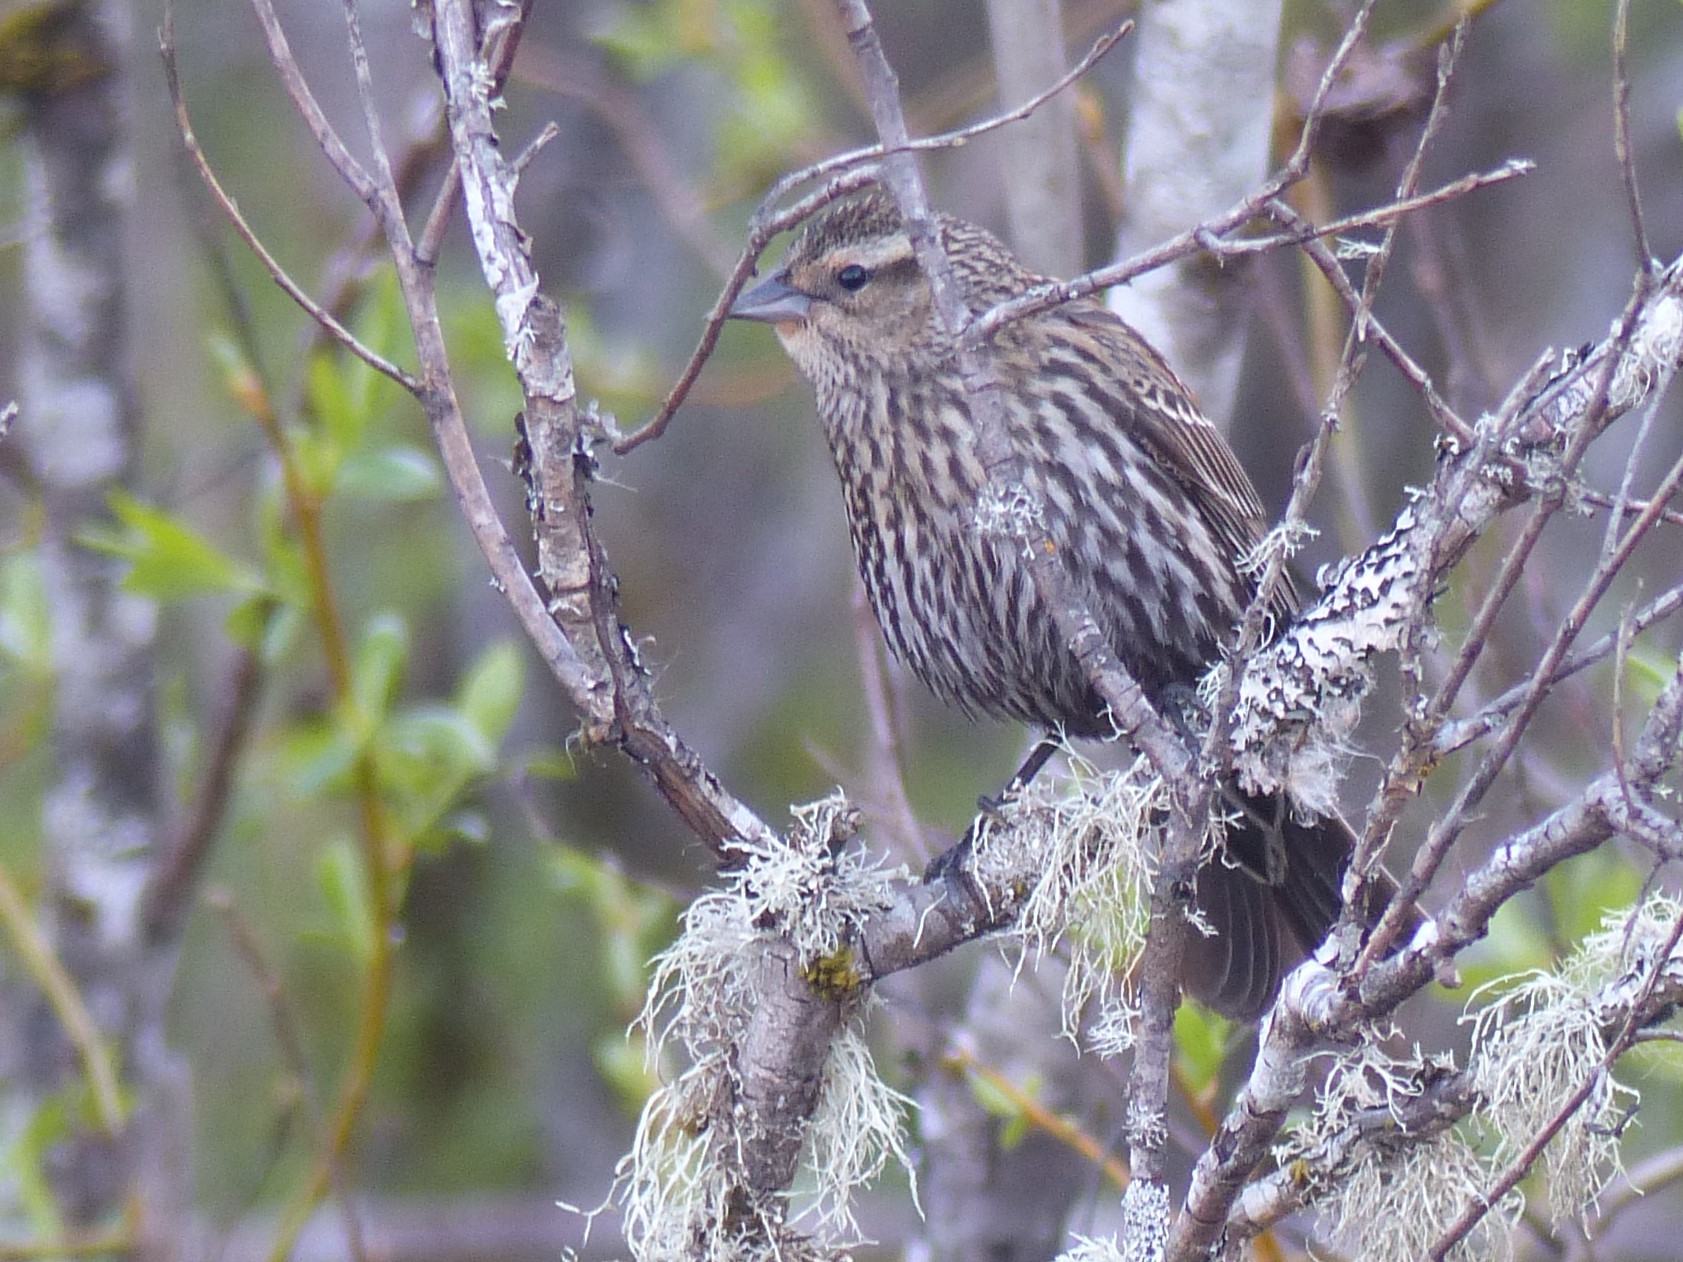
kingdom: Animalia
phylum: Chordata
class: Aves
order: Passeriformes
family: Icteridae
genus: Agelaius
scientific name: Agelaius phoeniceus
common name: Red-winged blackbird
